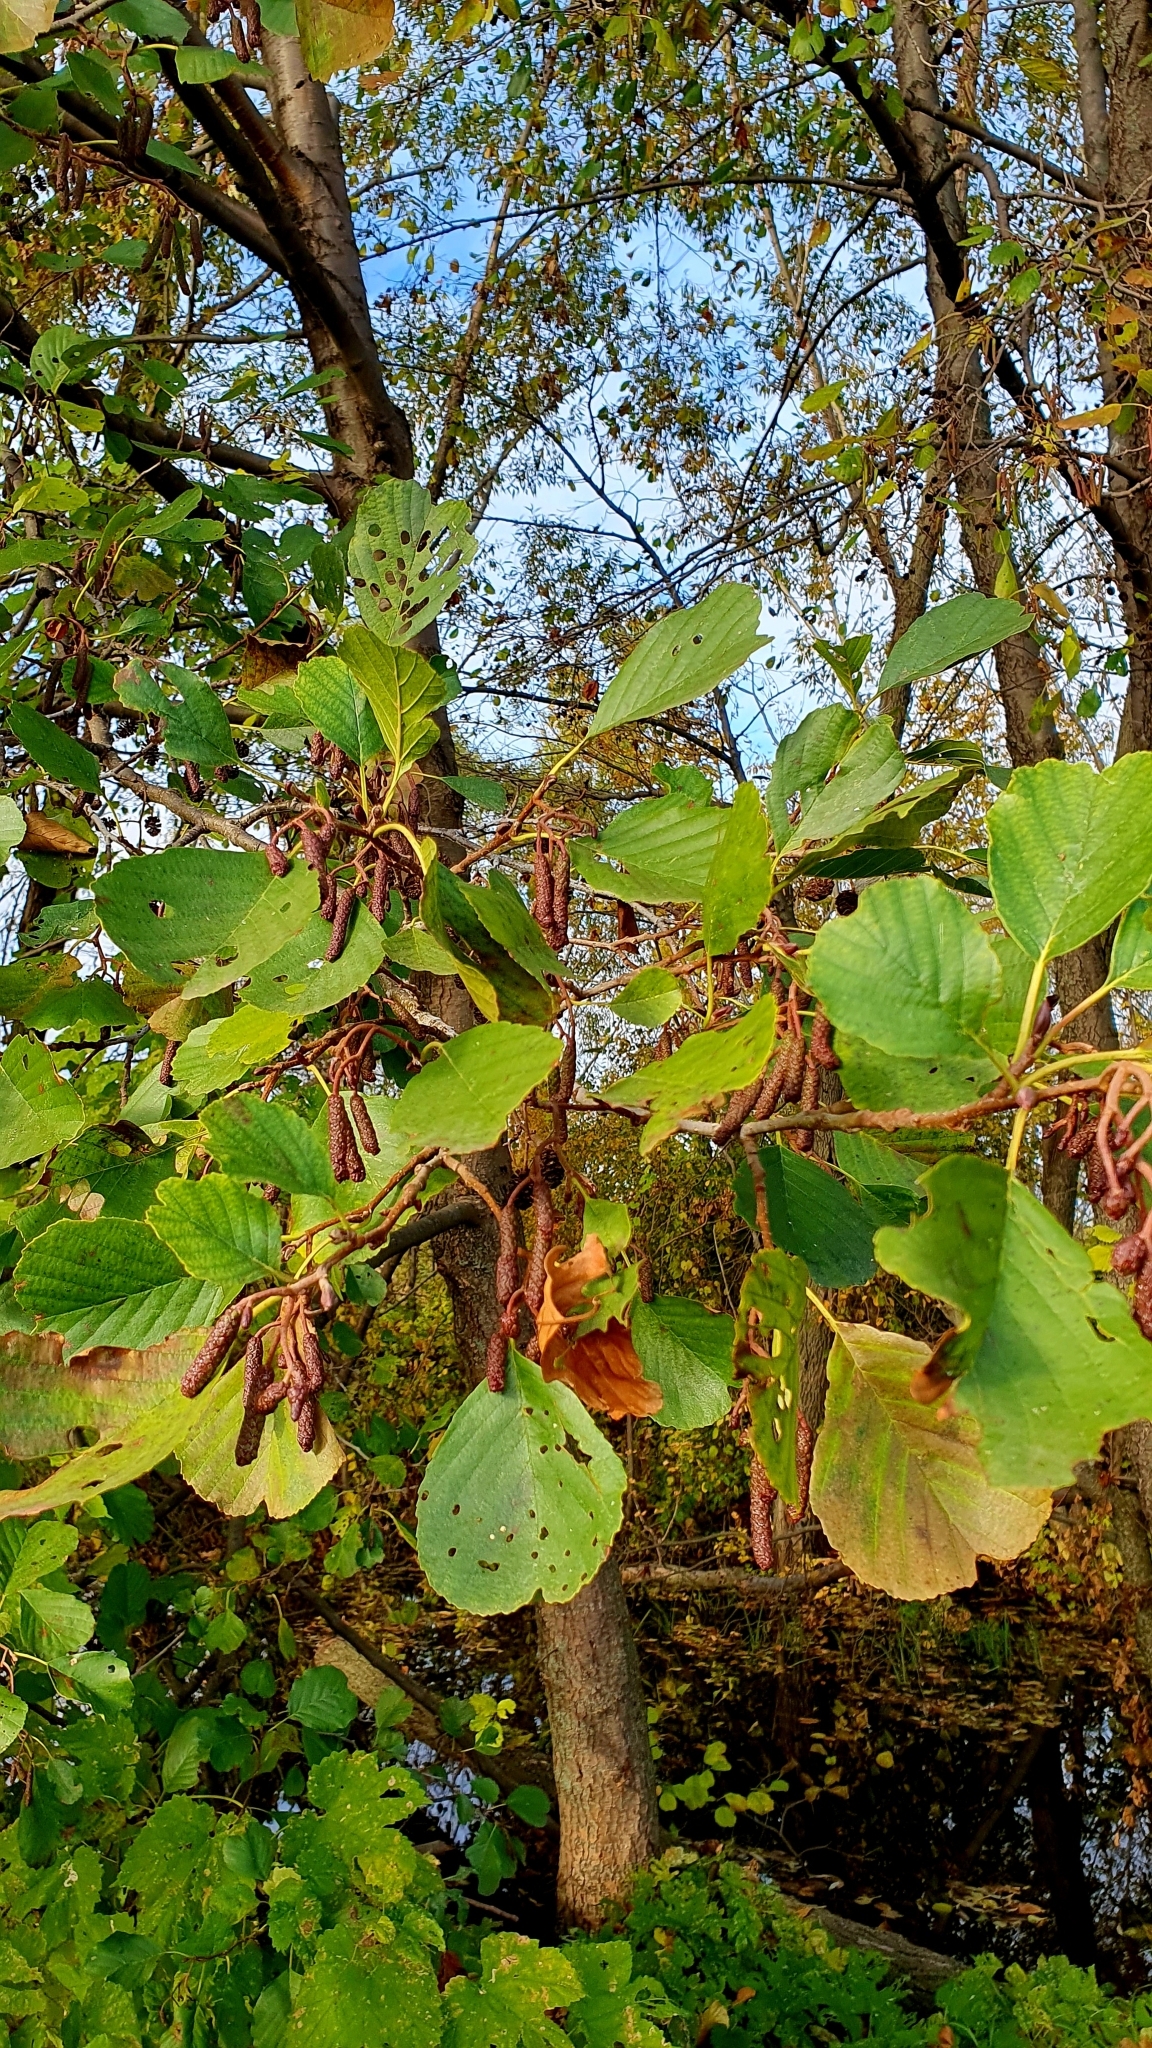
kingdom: Plantae
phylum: Tracheophyta
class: Magnoliopsida
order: Fagales
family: Betulaceae
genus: Alnus
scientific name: Alnus glutinosa
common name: Black alder
